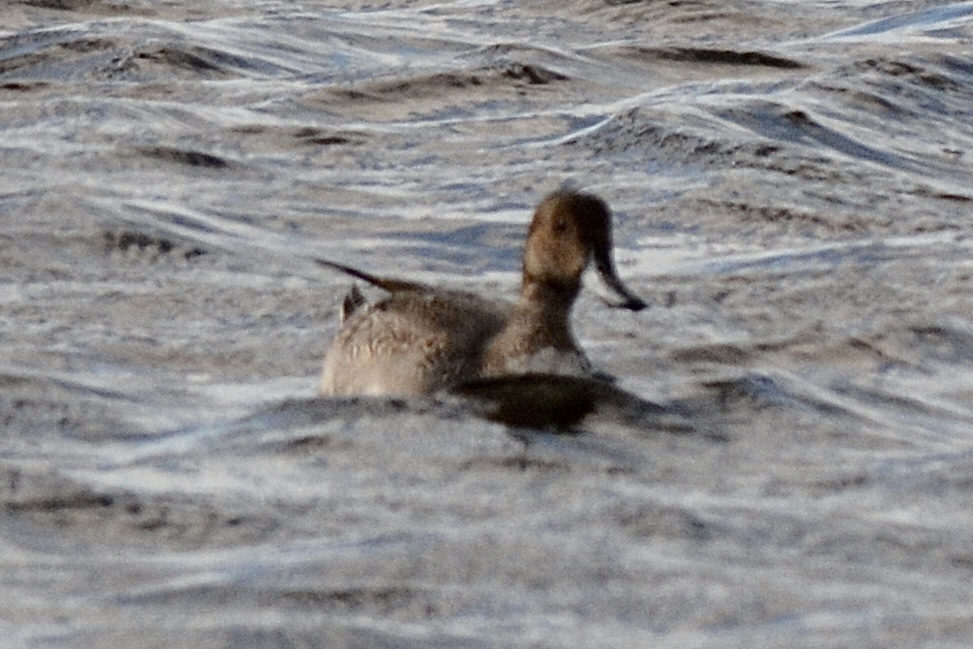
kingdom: Animalia
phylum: Chordata
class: Aves
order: Anseriformes
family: Anatidae
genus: Anas
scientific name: Anas acuta
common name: Northern pintail
